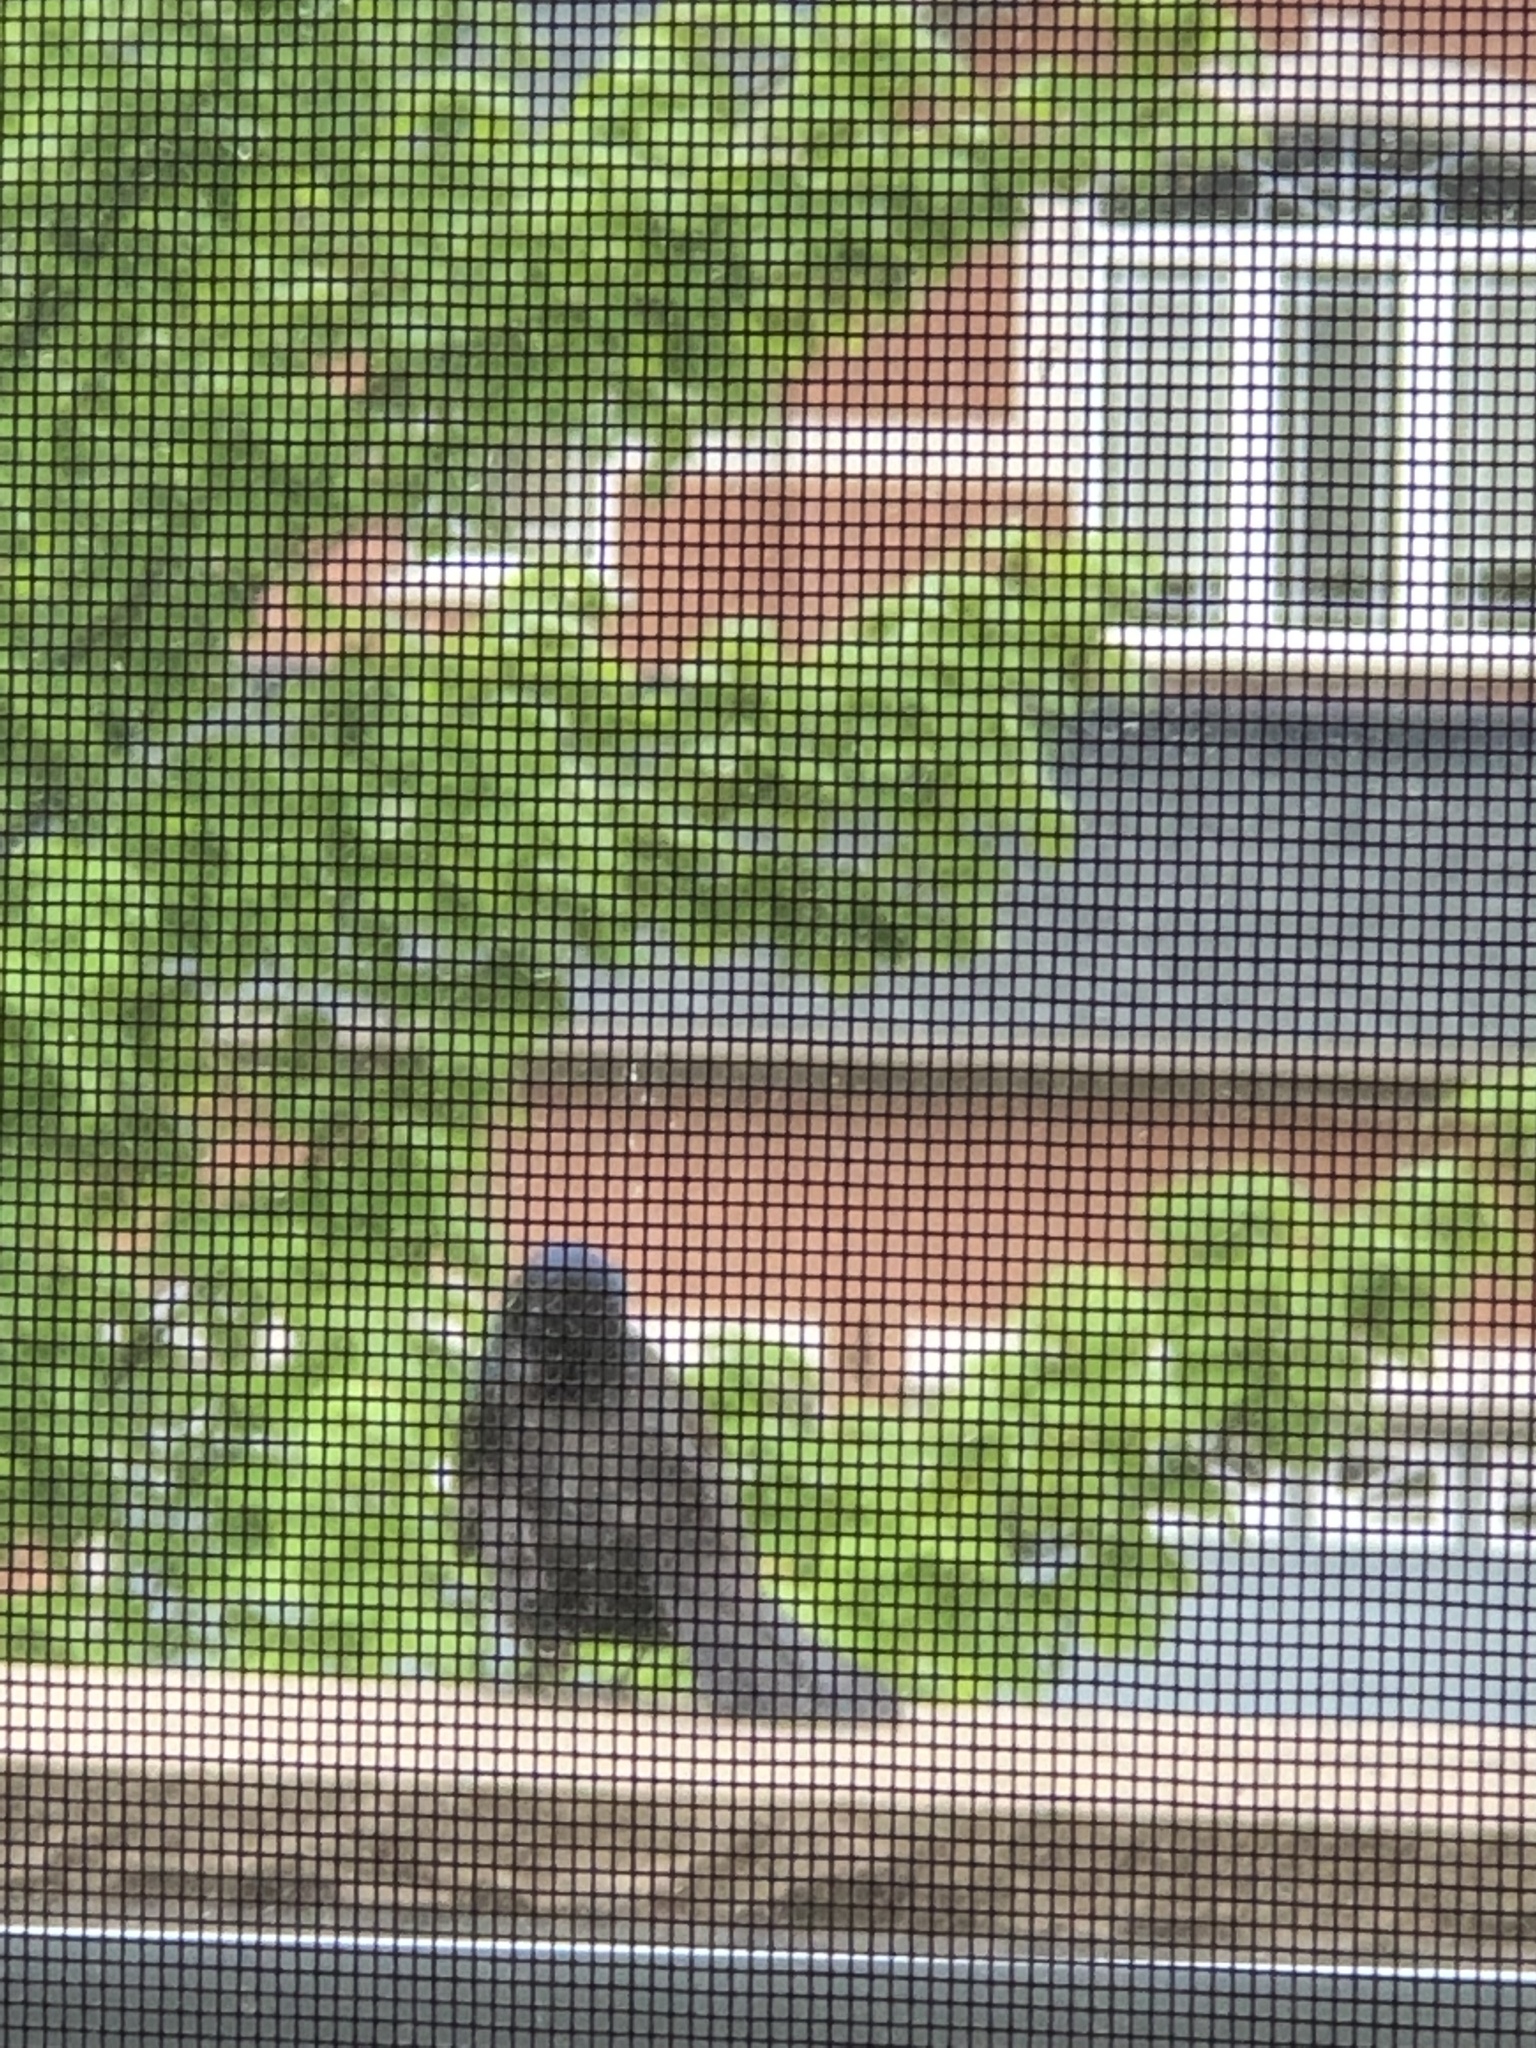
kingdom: Animalia
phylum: Chordata
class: Aves
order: Passeriformes
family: Icteridae
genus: Quiscalus
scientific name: Quiscalus quiscula
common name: Common grackle
